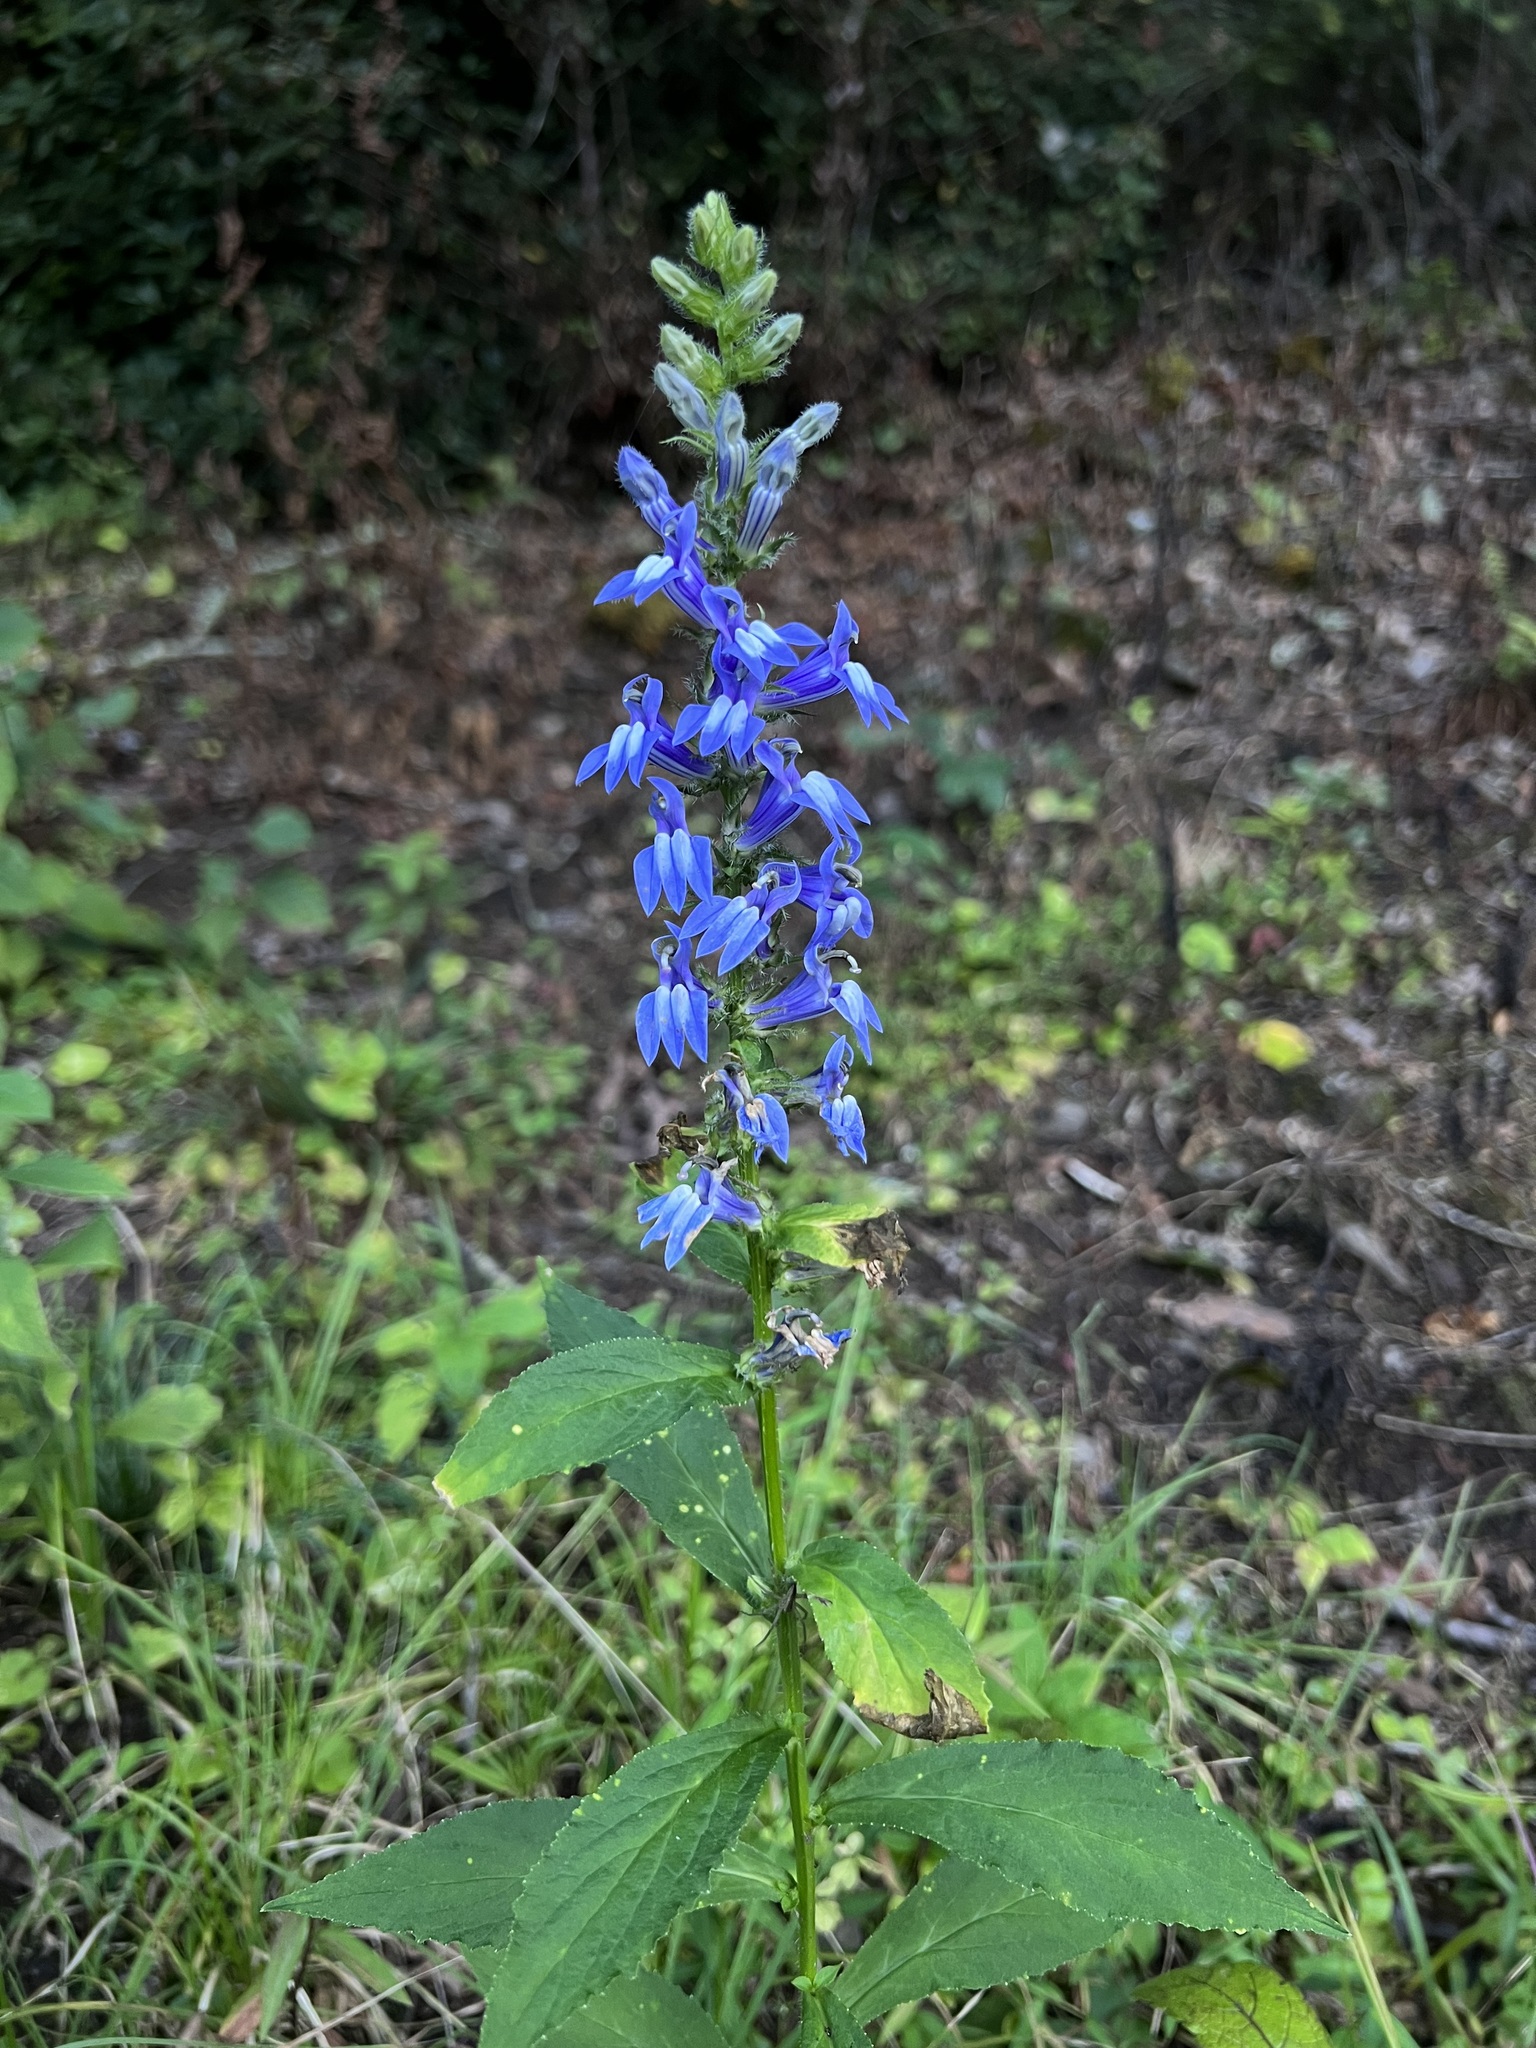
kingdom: Plantae
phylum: Tracheophyta
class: Magnoliopsida
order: Asterales
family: Campanulaceae
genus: Lobelia
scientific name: Lobelia siphilitica
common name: Great lobelia
